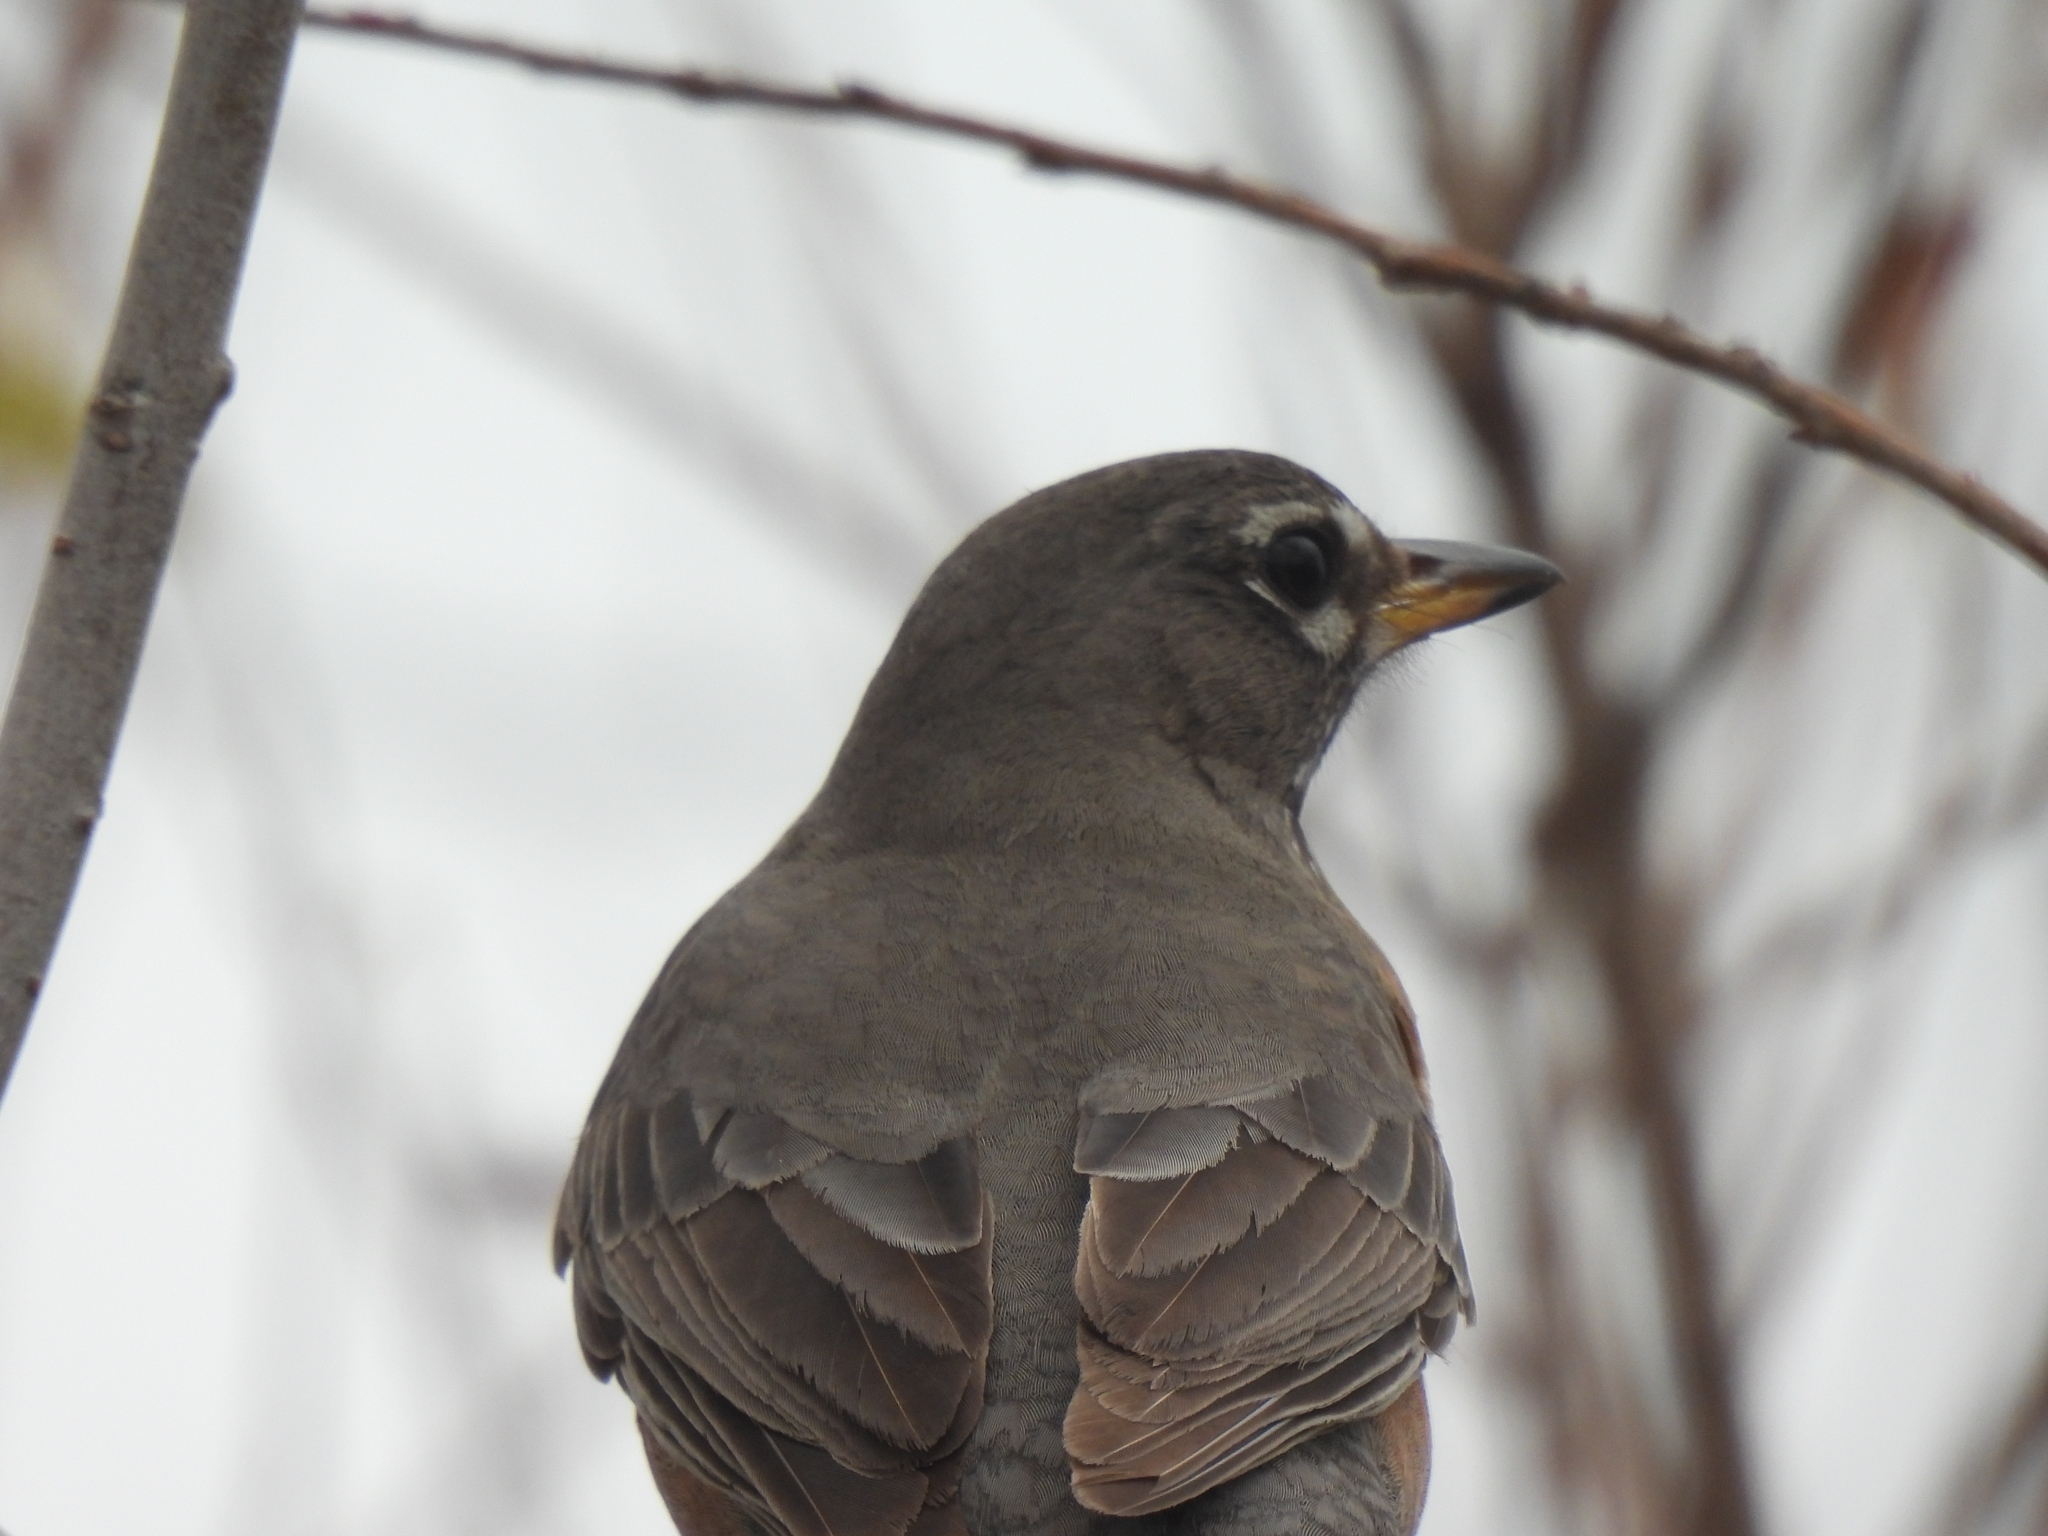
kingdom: Animalia
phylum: Chordata
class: Aves
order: Passeriformes
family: Turdidae
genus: Turdus
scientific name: Turdus migratorius
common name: American robin
